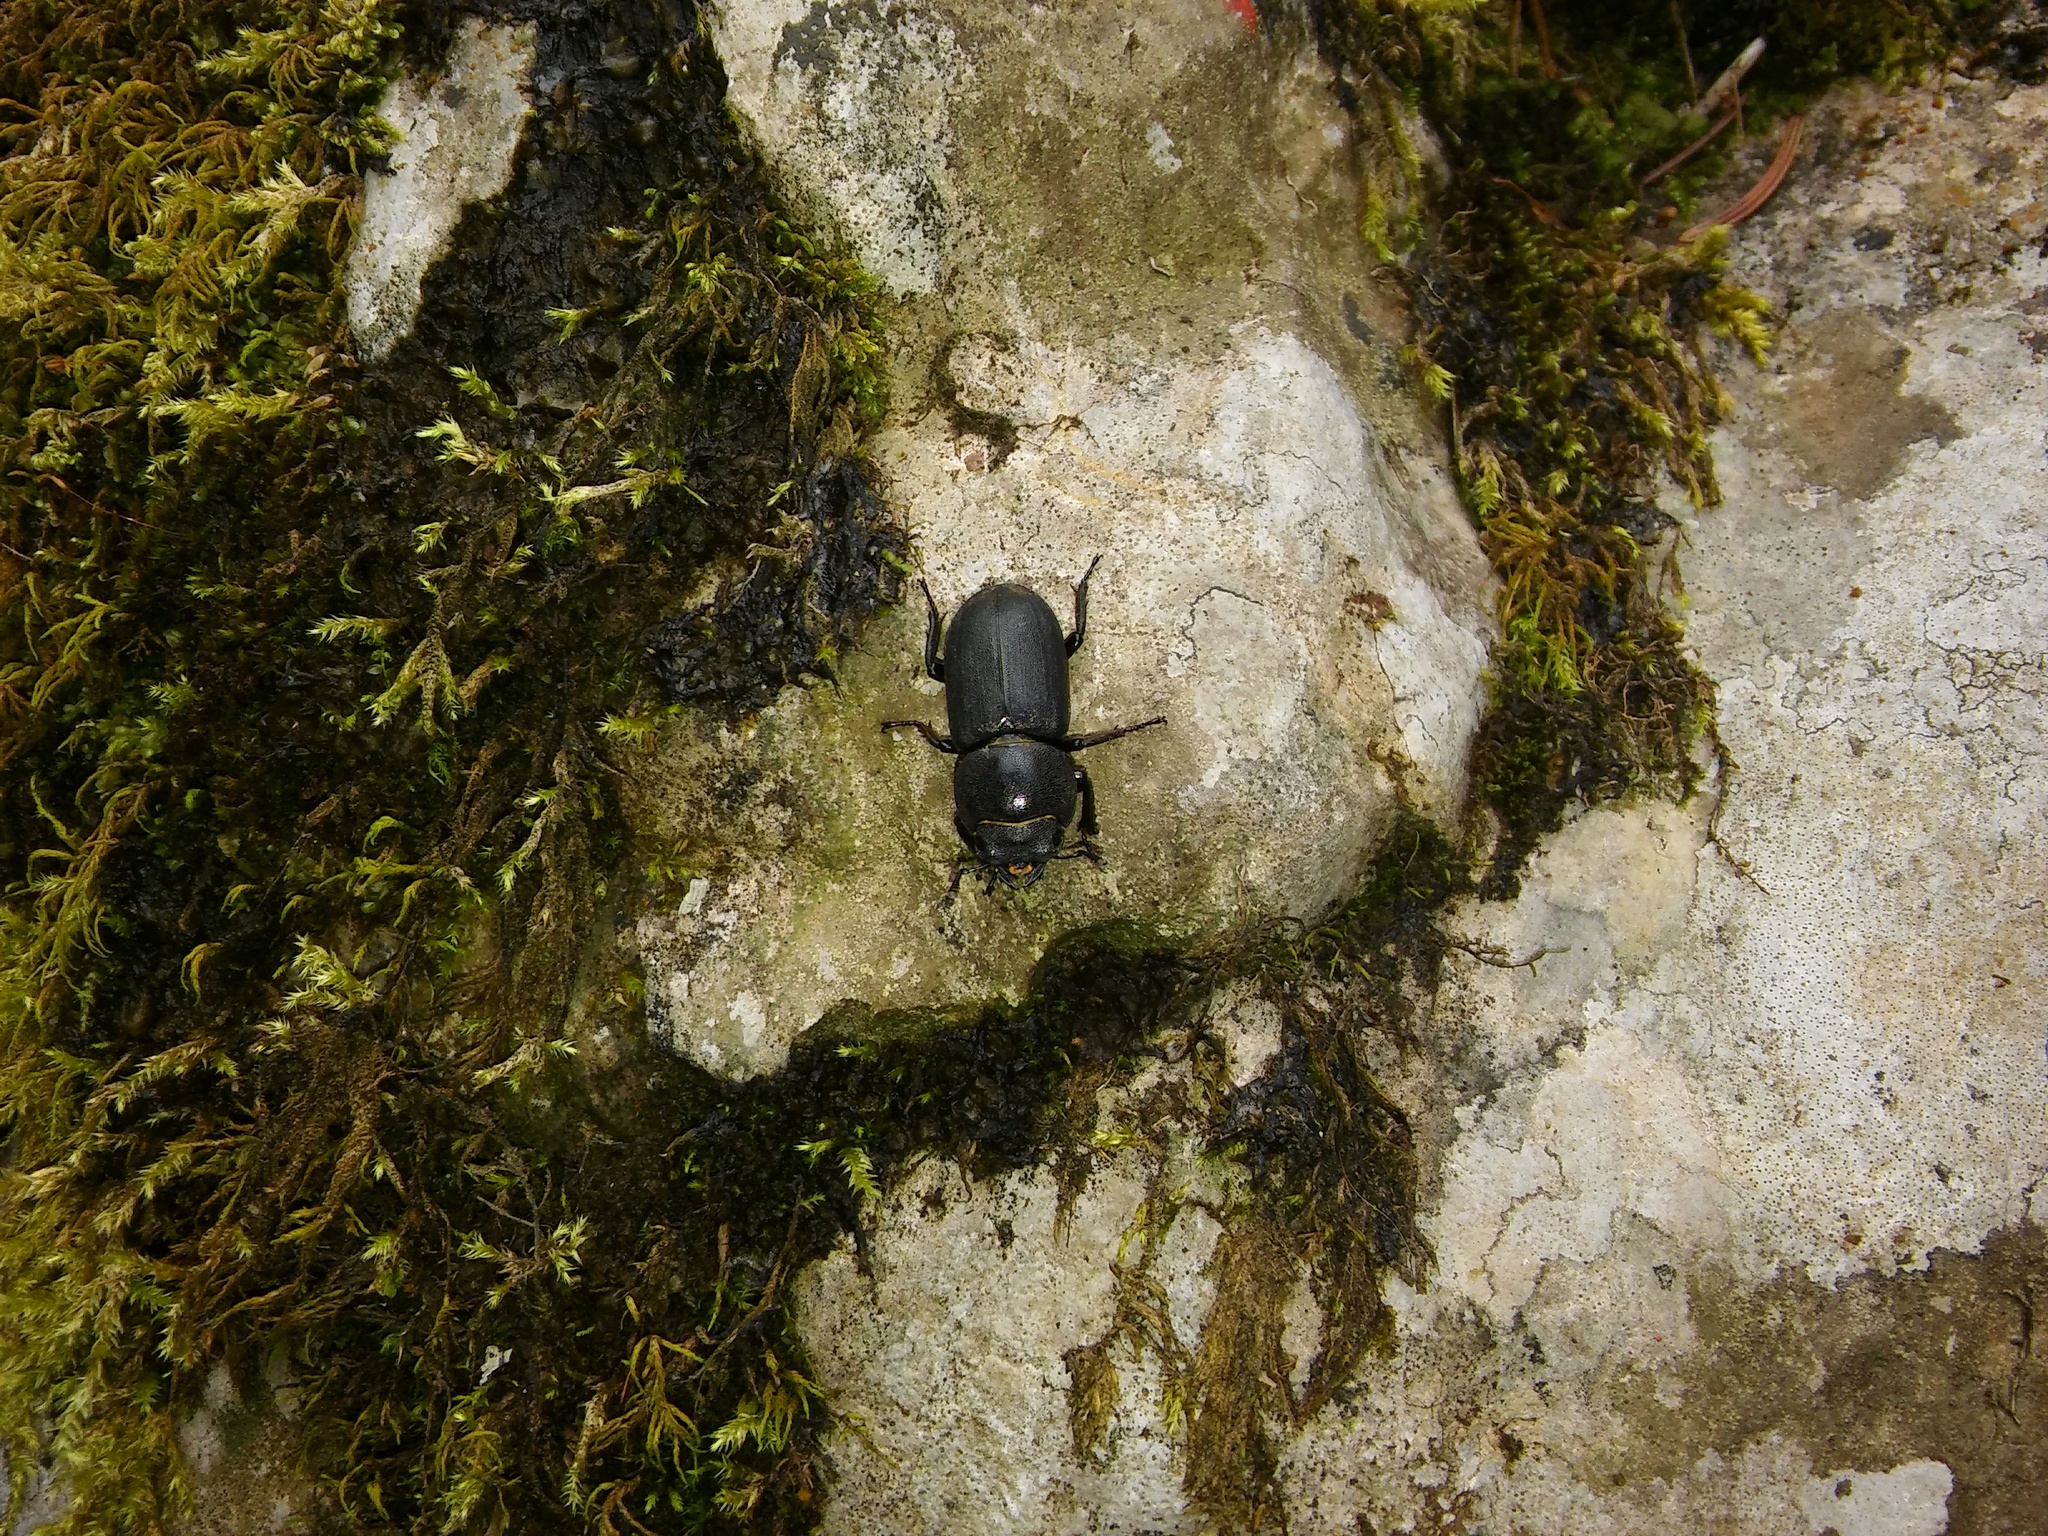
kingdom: Animalia
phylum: Arthropoda
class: Insecta
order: Coleoptera
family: Lucanidae
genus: Dorcus
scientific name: Dorcus parallelipipedus
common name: Lesser stag beetle
